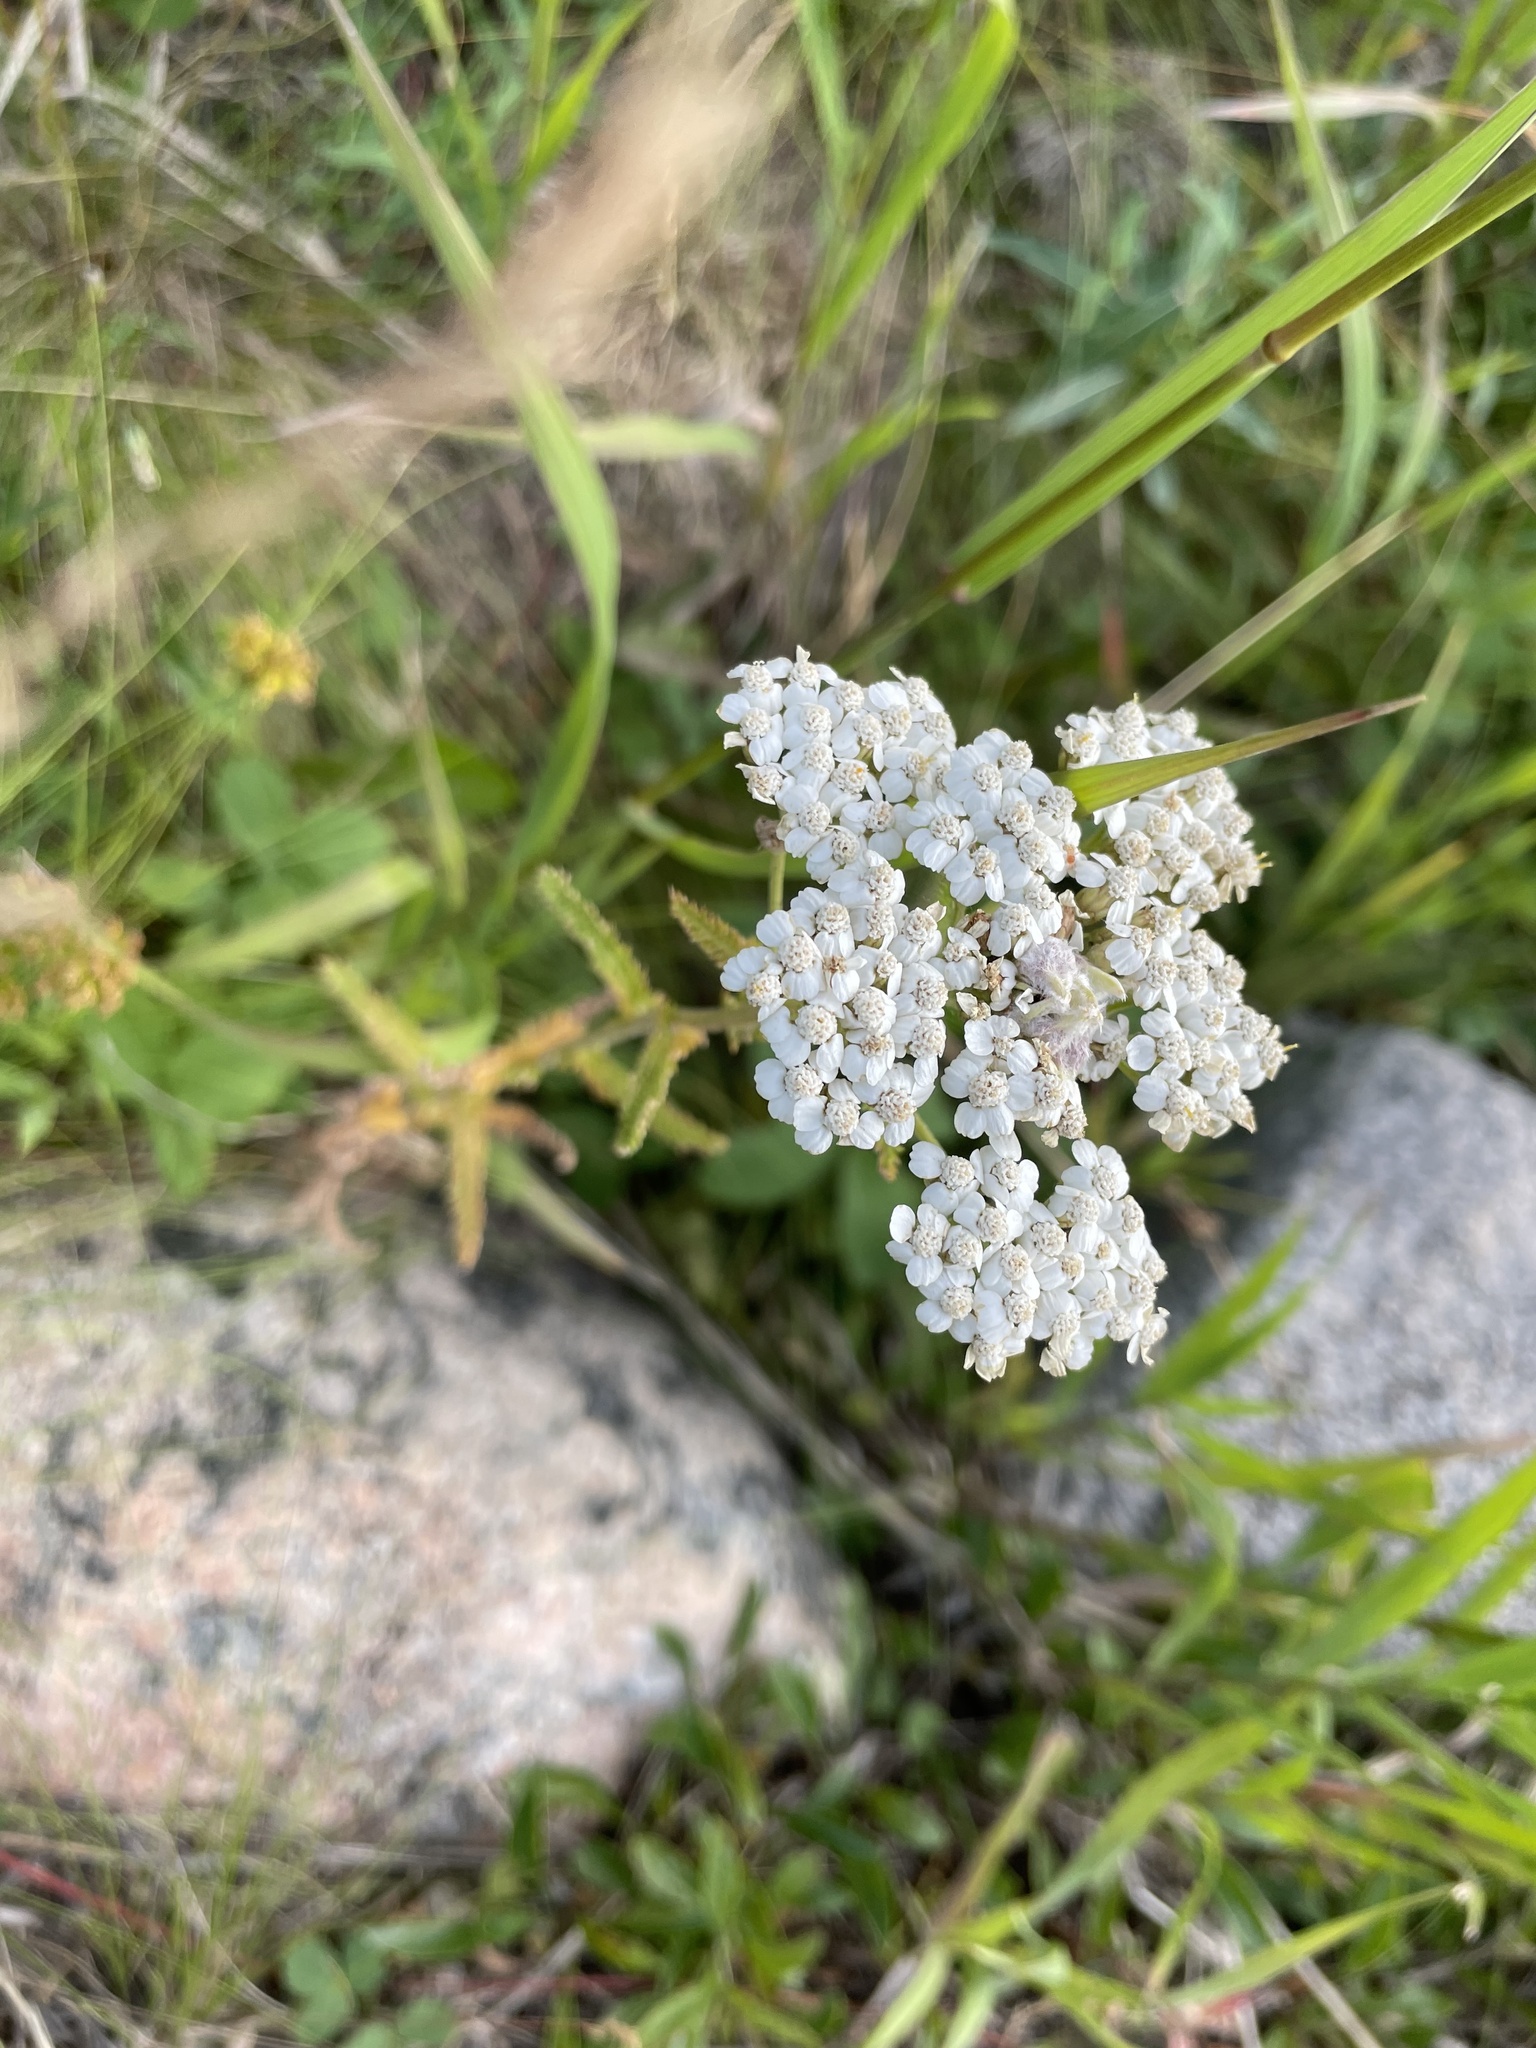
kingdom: Plantae
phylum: Tracheophyta
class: Magnoliopsida
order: Asterales
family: Asteraceae
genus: Achillea
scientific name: Achillea millefolium
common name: Yarrow
